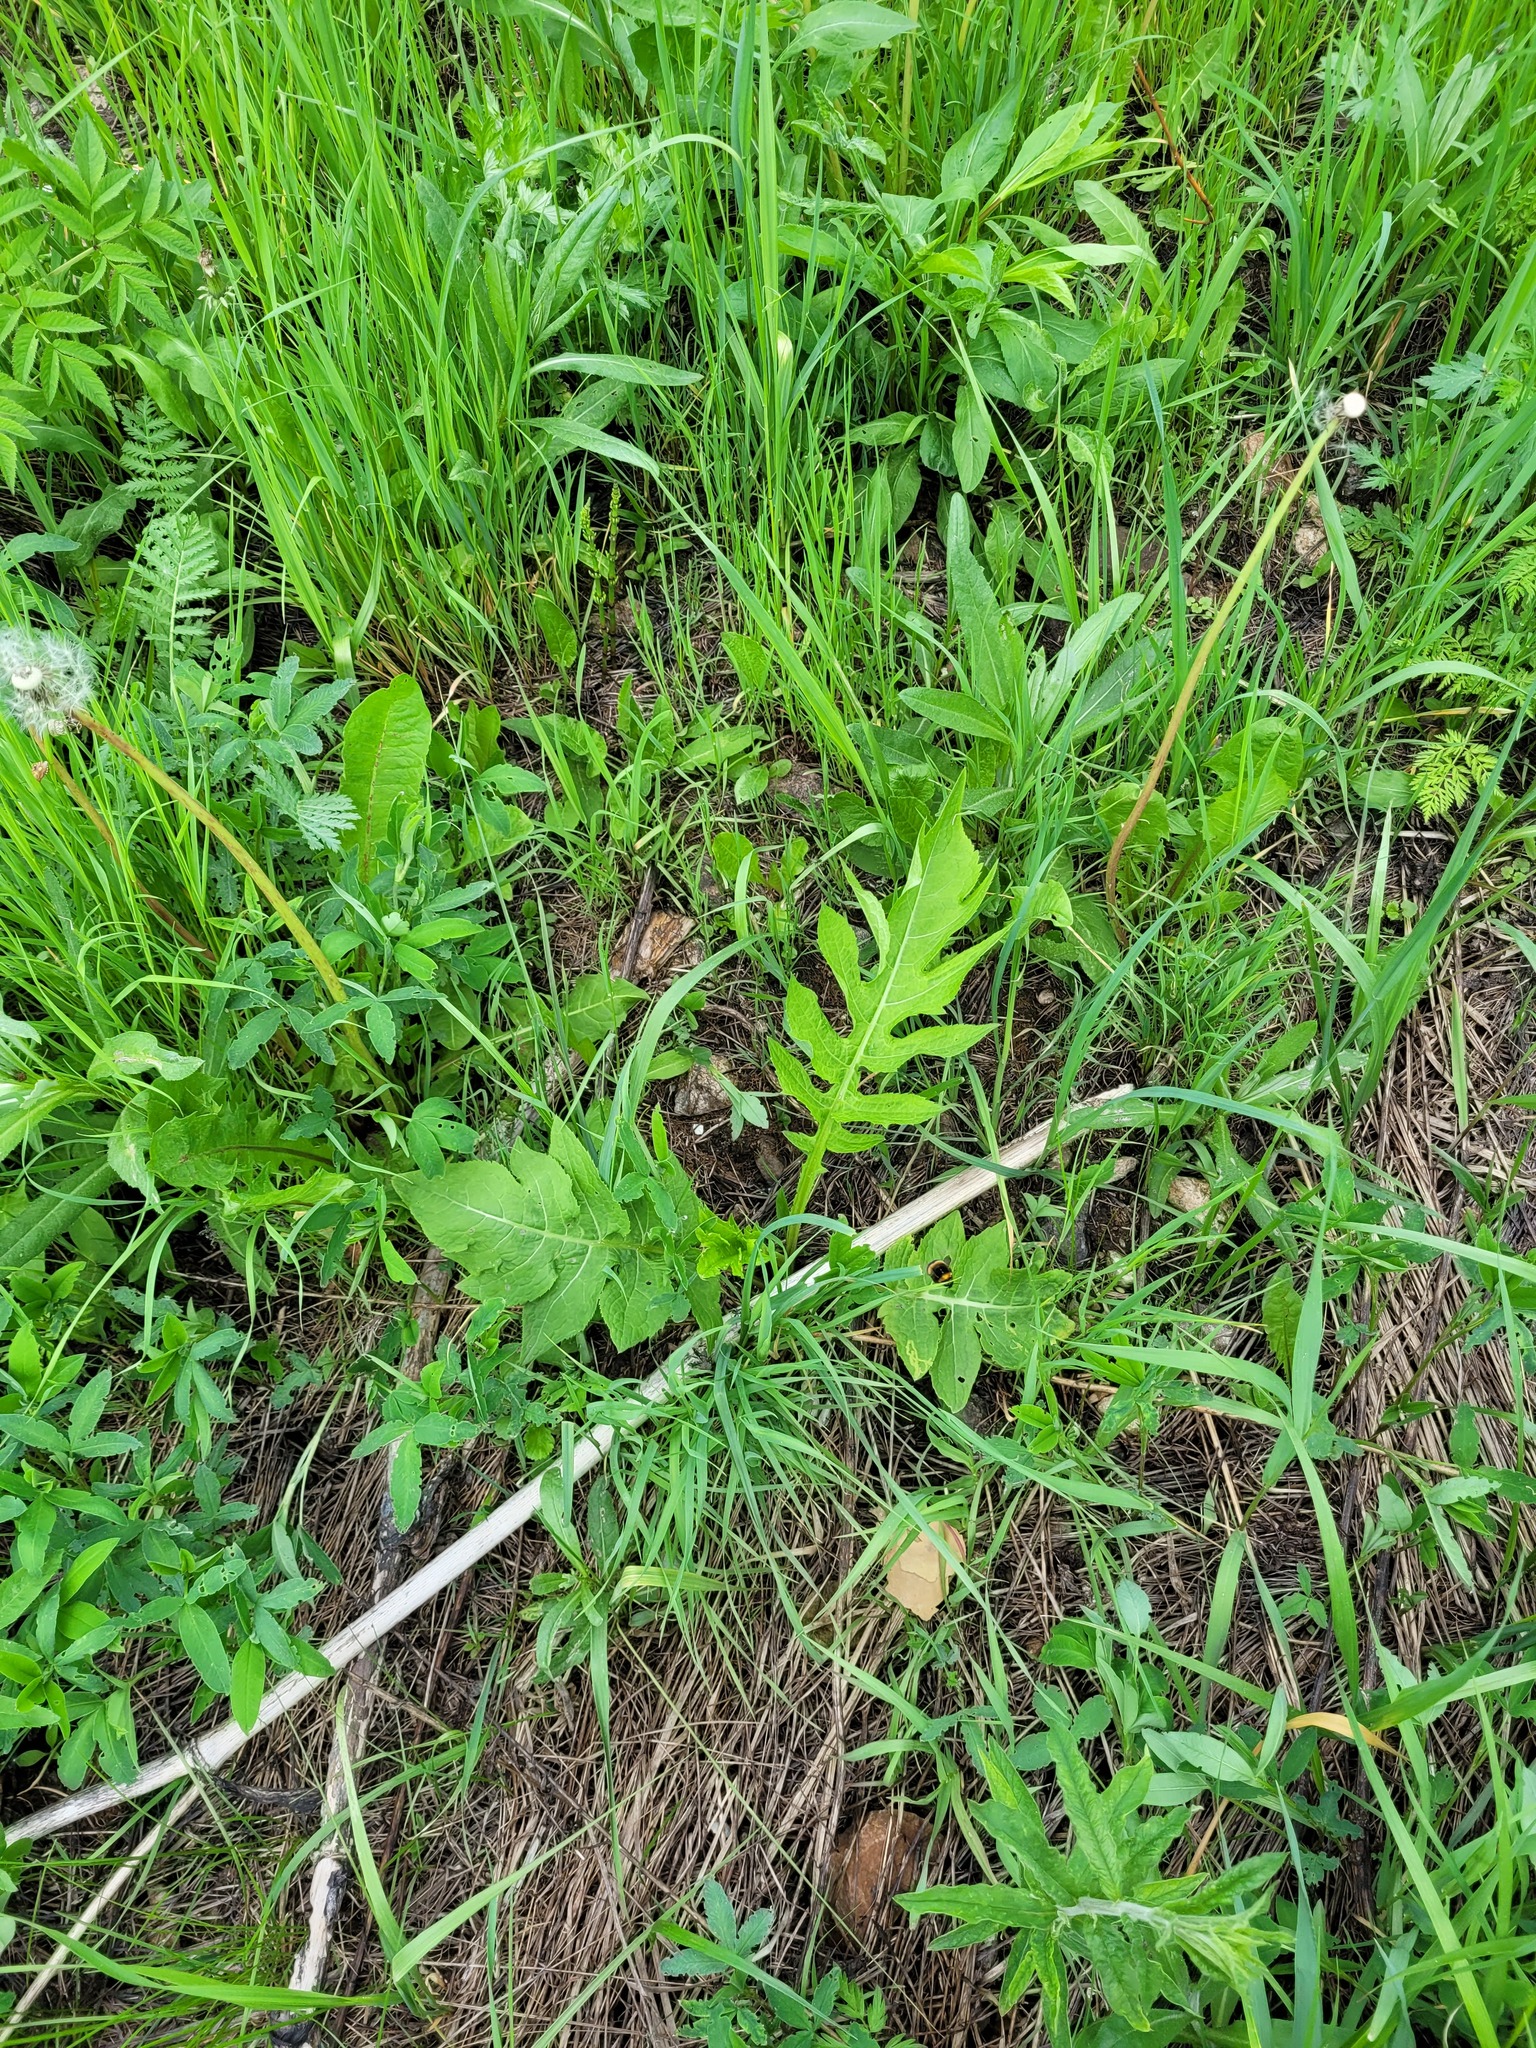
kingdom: Plantae
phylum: Tracheophyta
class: Magnoliopsida
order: Asterales
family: Asteraceae
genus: Cirsium
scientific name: Cirsium oleraceum
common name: Cabbage thistle
